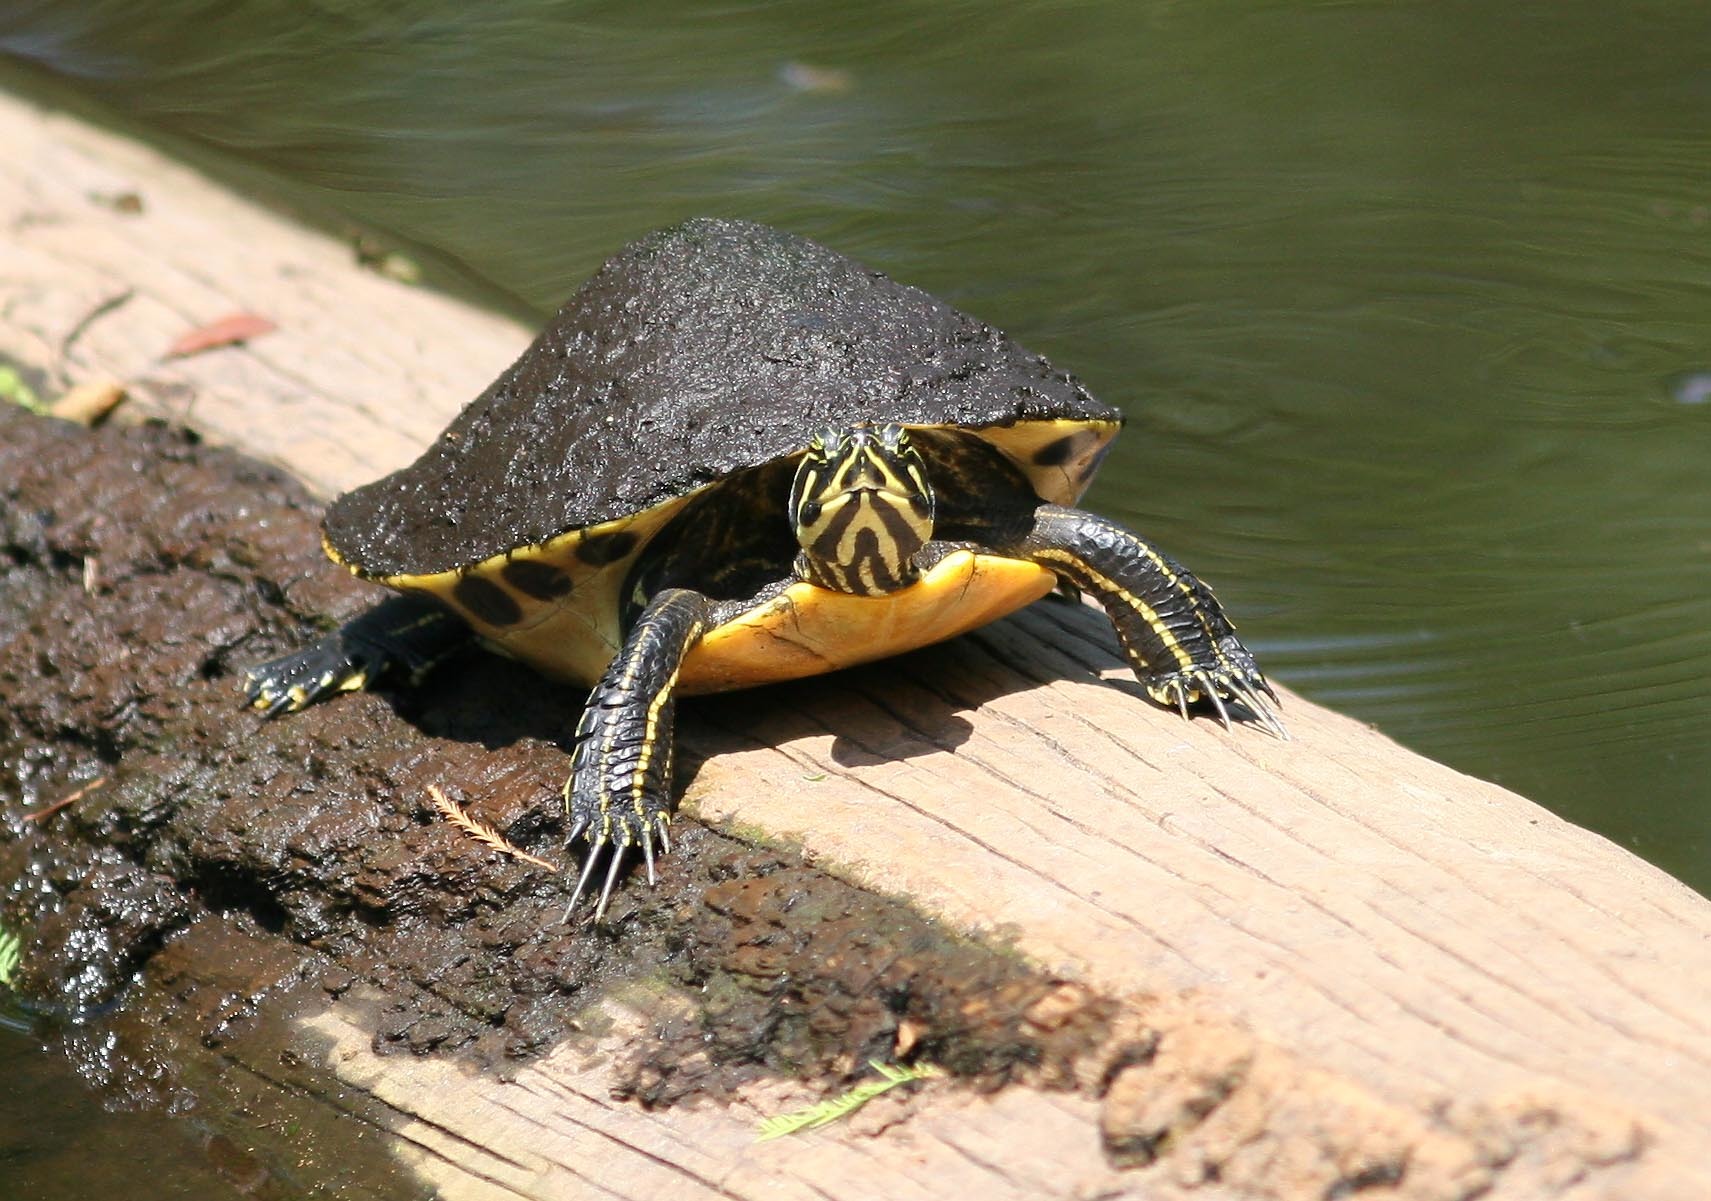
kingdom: Animalia
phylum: Chordata
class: Testudines
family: Emydidae
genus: Pseudemys
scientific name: Pseudemys nelsoni
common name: Florida red-bellied turtle
